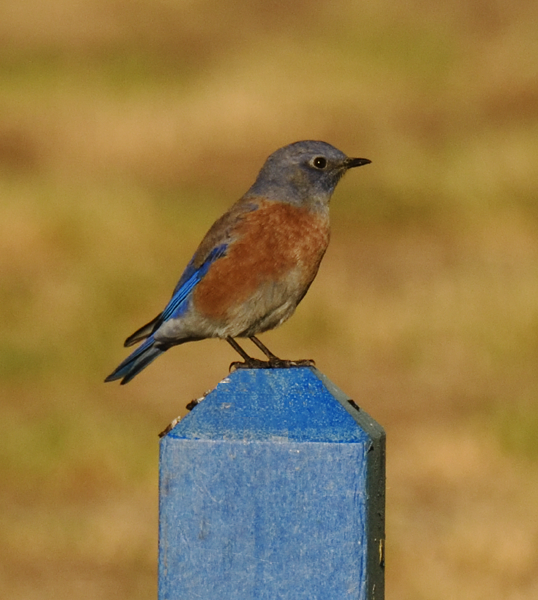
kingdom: Animalia
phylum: Chordata
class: Aves
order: Passeriformes
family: Turdidae
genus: Sialia
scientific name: Sialia mexicana
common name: Western bluebird
